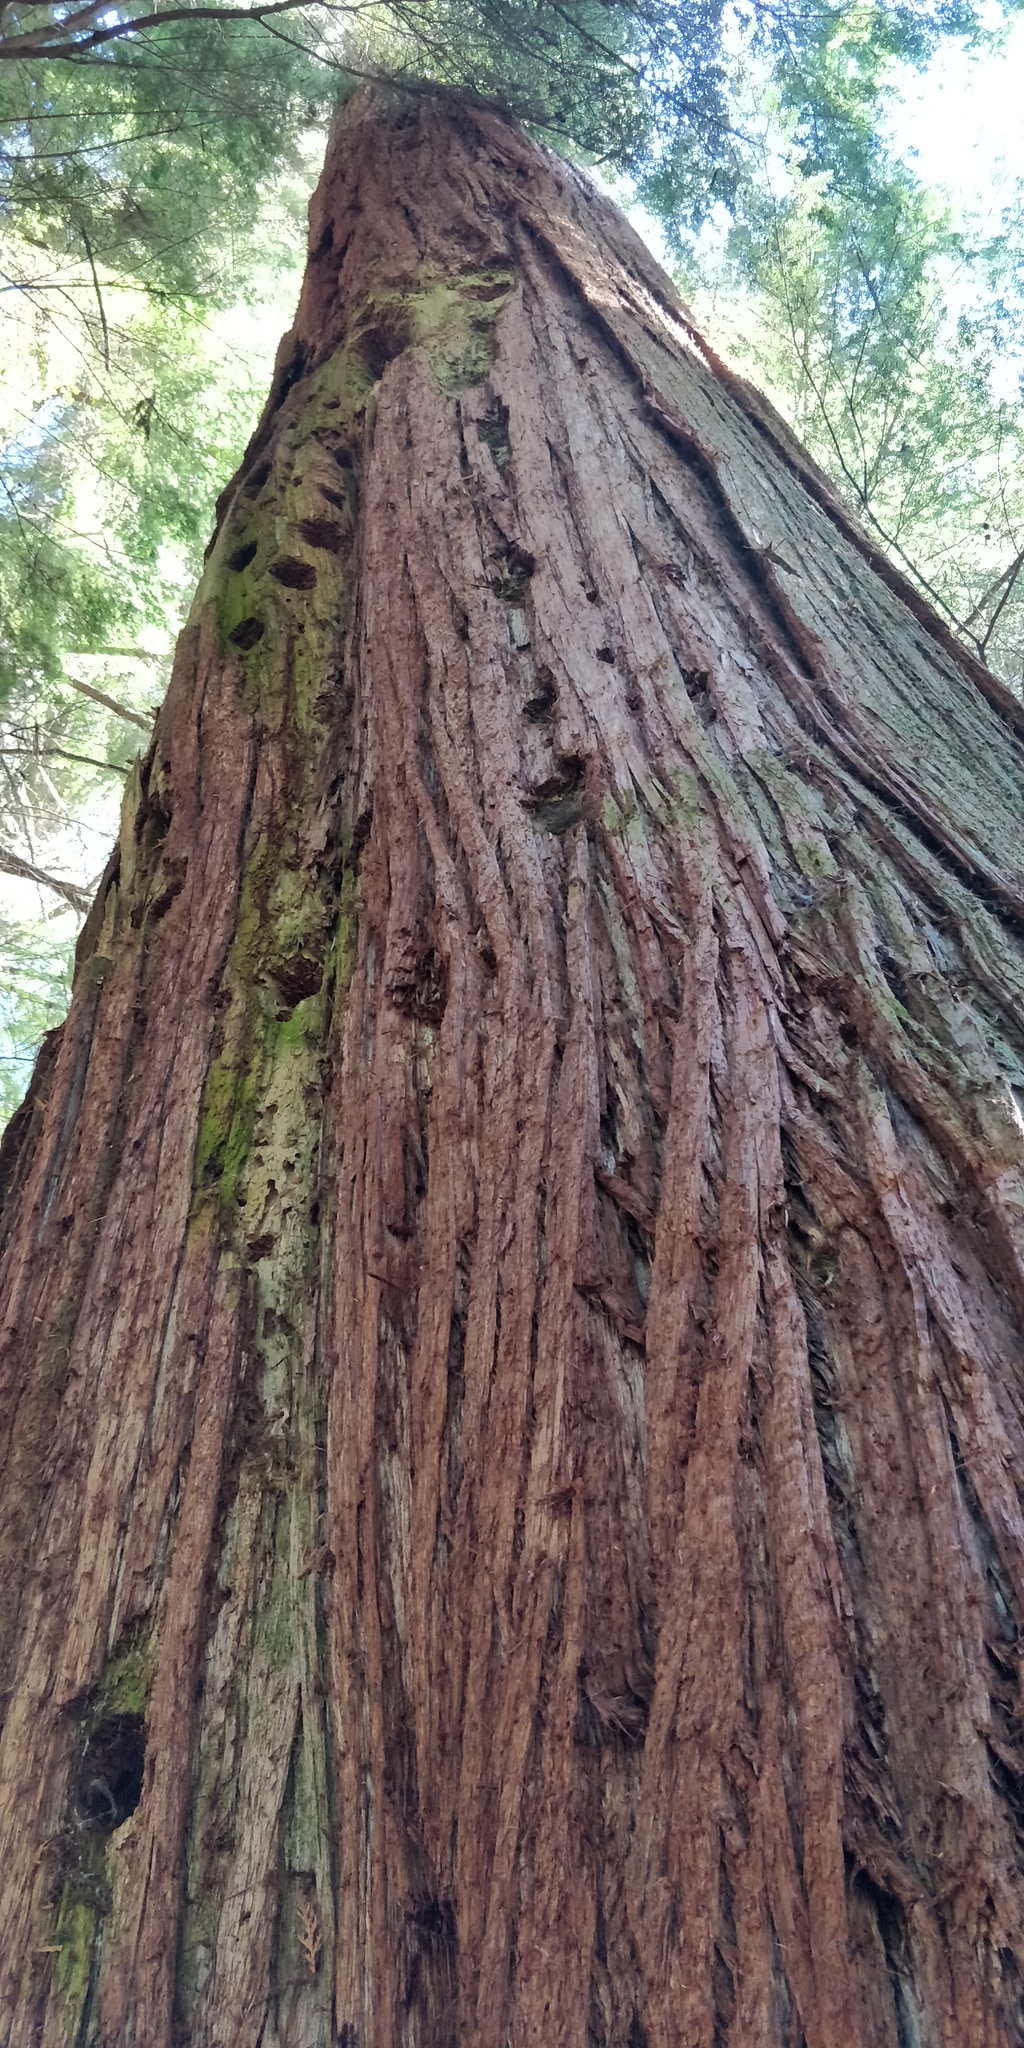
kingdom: Plantae
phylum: Tracheophyta
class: Pinopsida
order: Pinales
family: Cupressaceae
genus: Thuja
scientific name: Thuja plicata
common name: Western red-cedar
